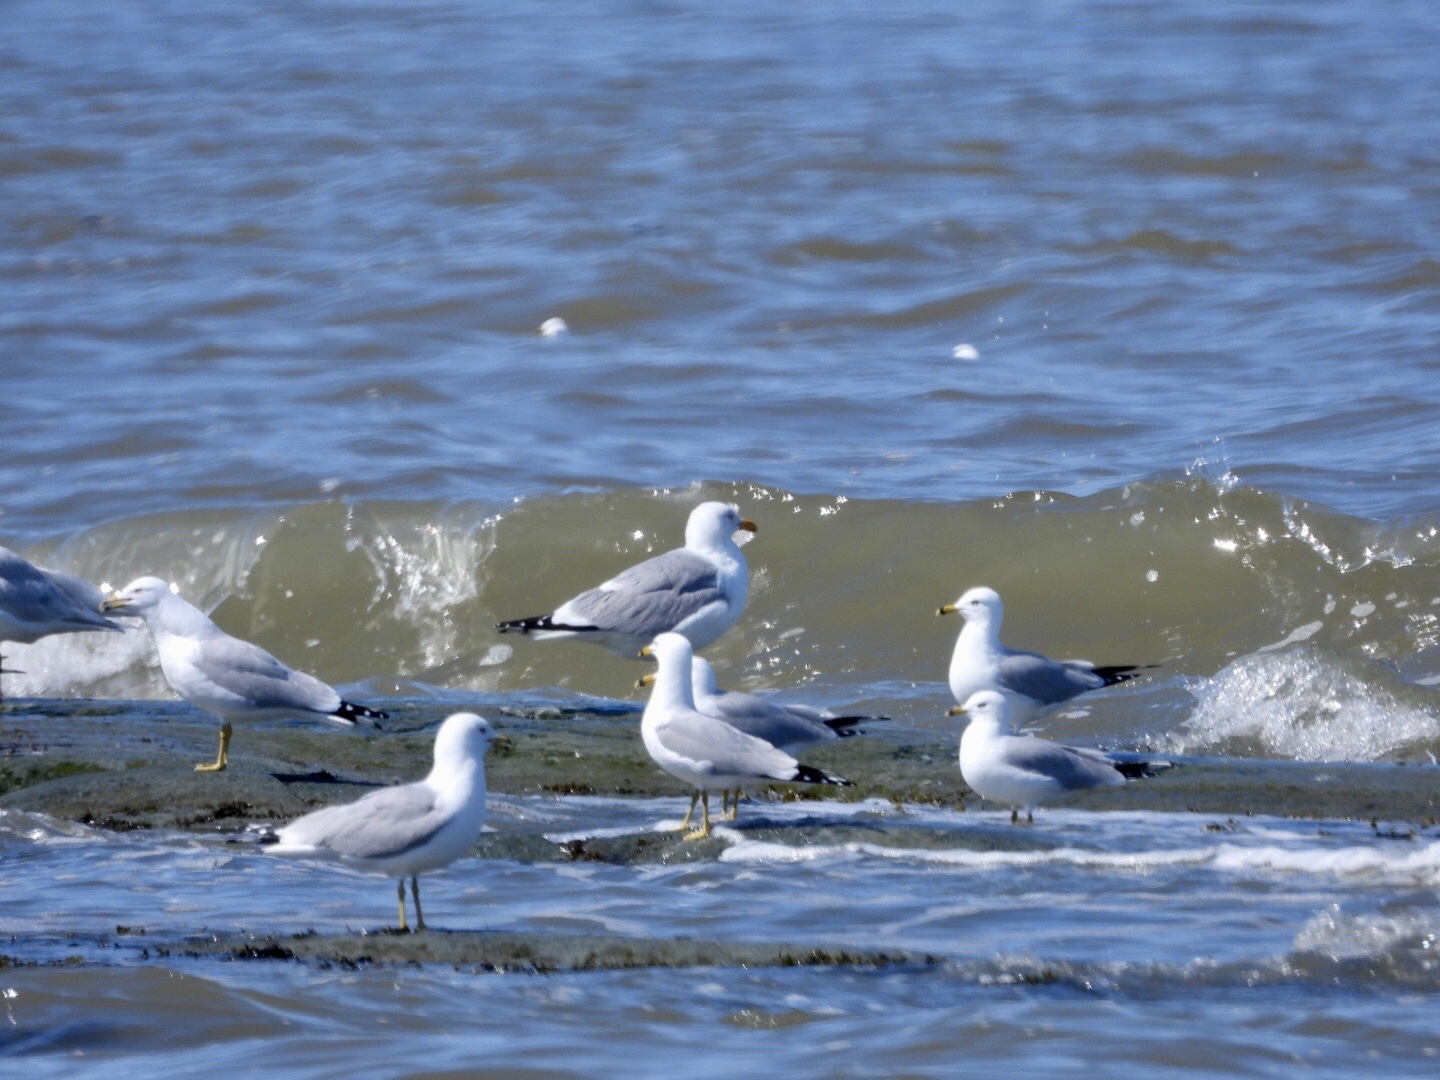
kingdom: Animalia
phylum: Chordata
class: Aves
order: Charadriiformes
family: Laridae
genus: Larus
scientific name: Larus delawarensis
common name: Ring-billed gull
